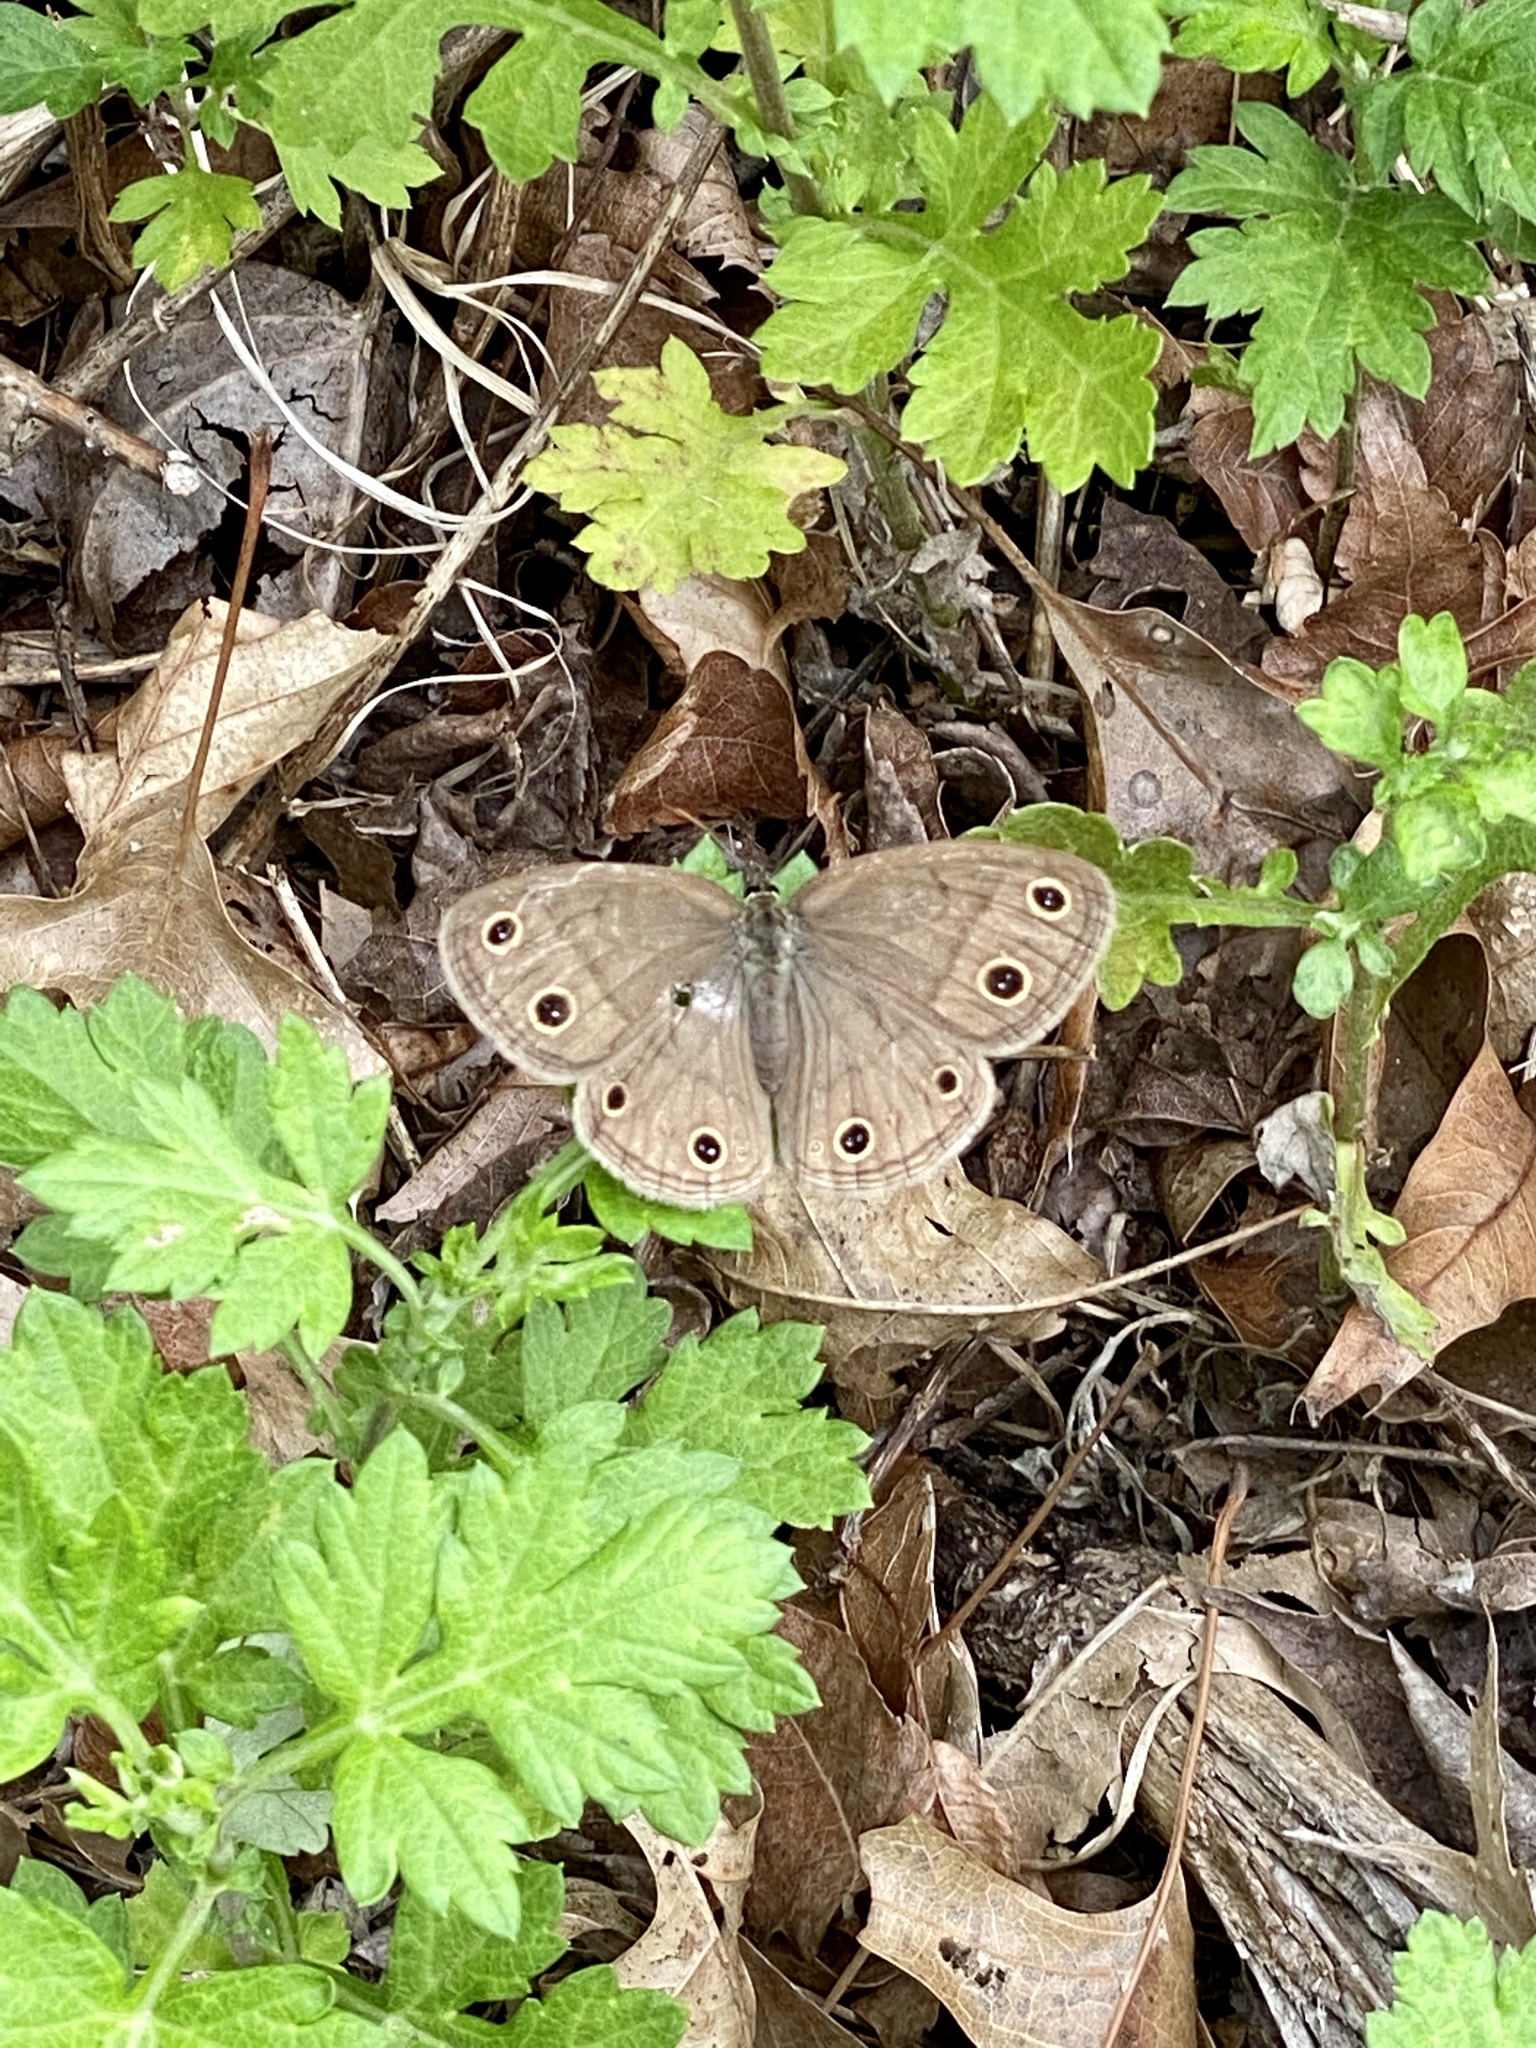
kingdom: Animalia
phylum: Arthropoda
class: Insecta
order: Lepidoptera
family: Nymphalidae
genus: Euptychia
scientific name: Euptychia cymela
